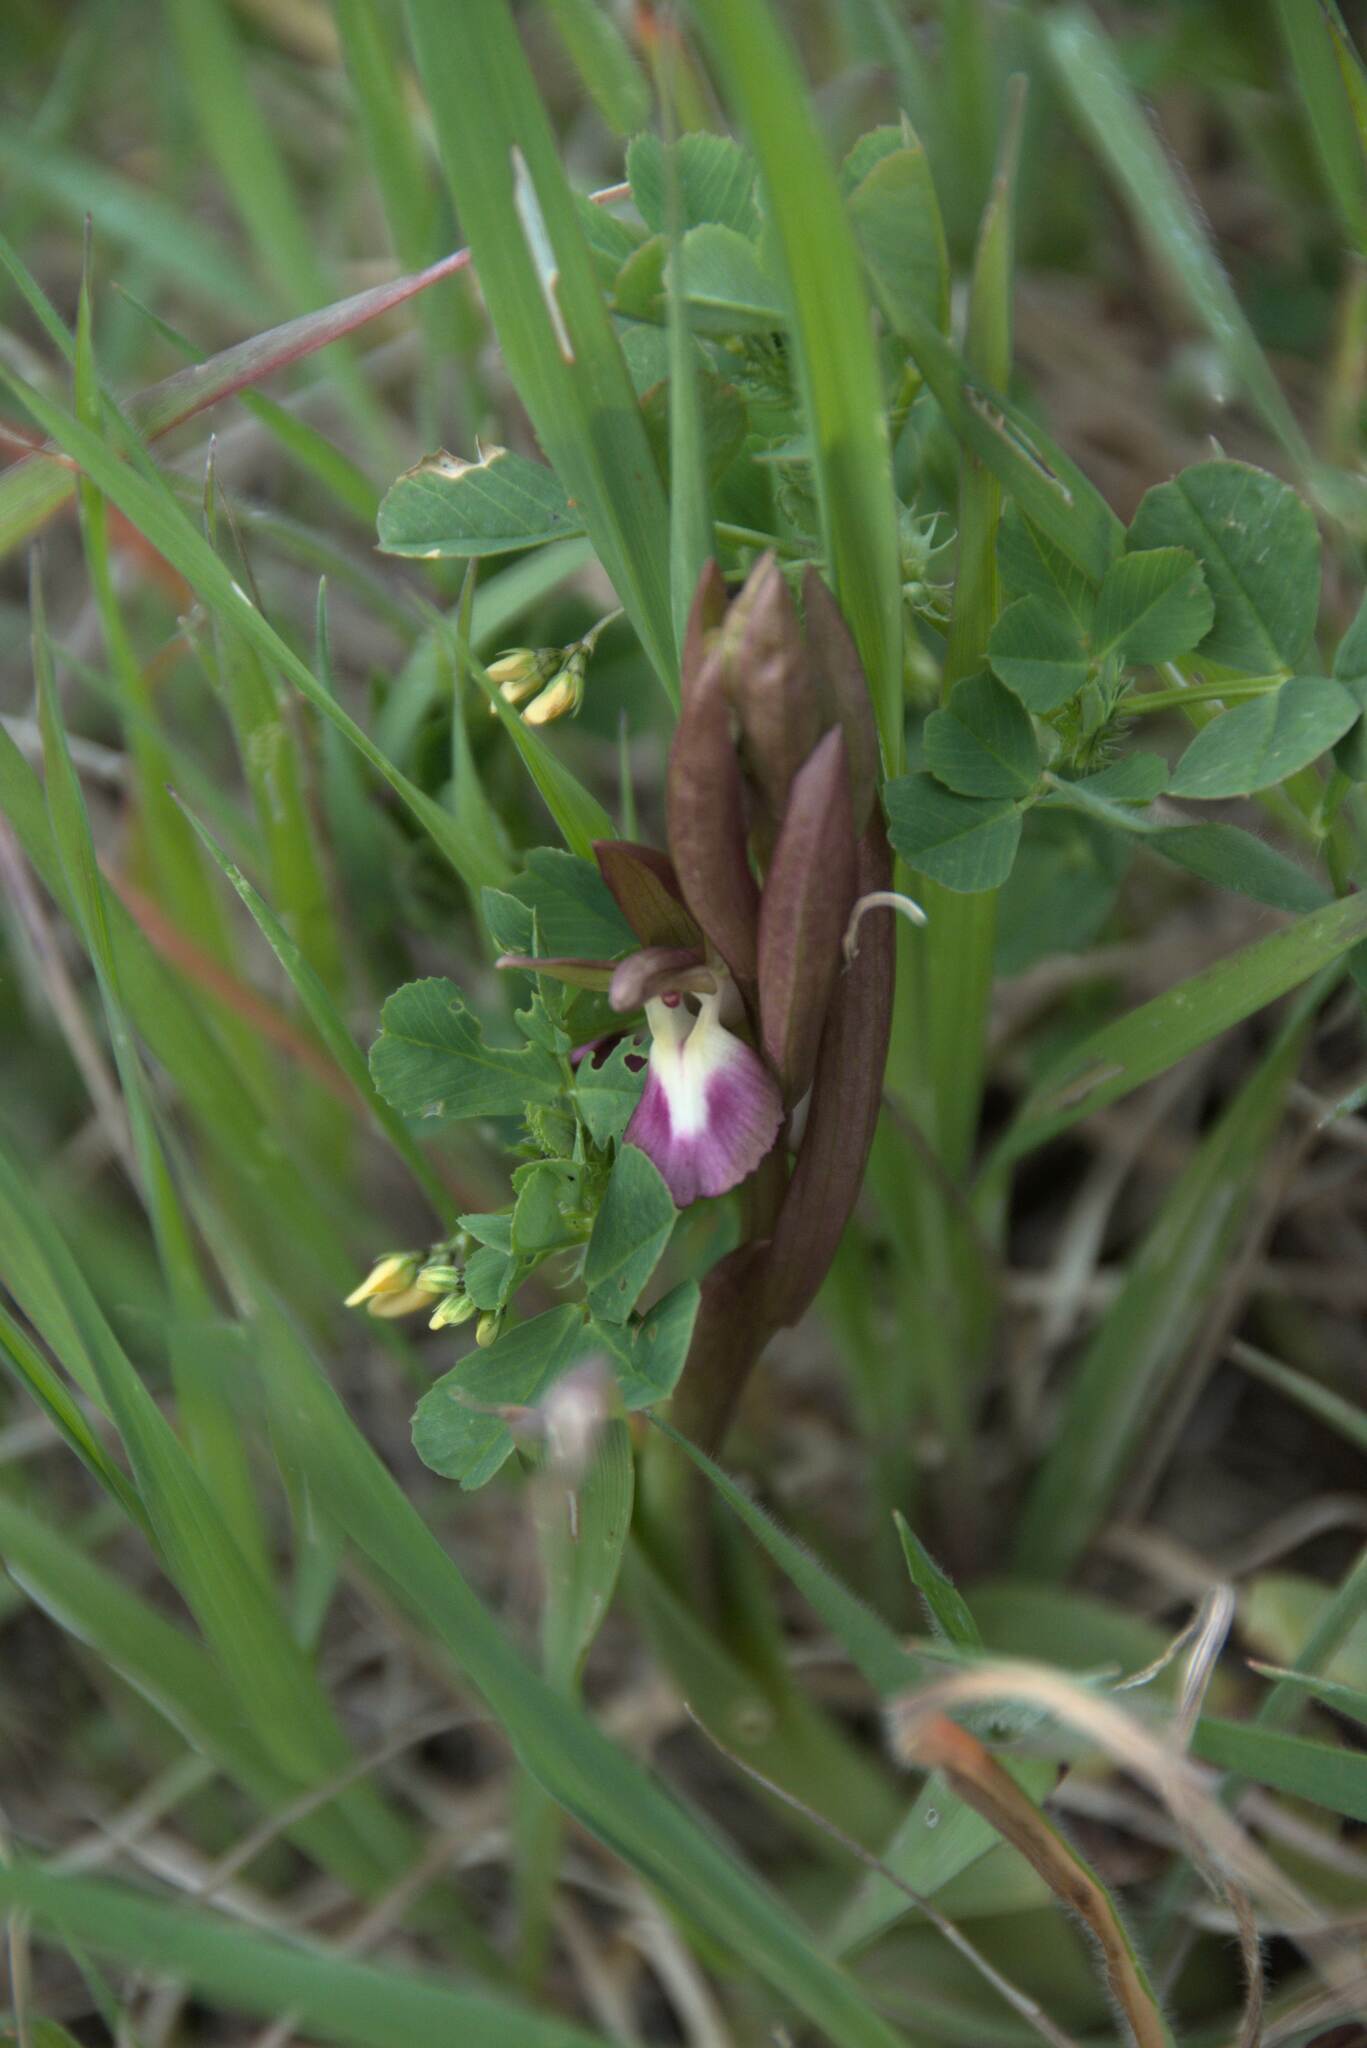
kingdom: Plantae
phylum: Tracheophyta
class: Liliopsida
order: Asparagales
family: Orchidaceae
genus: Anacamptis
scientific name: Anacamptis collina
